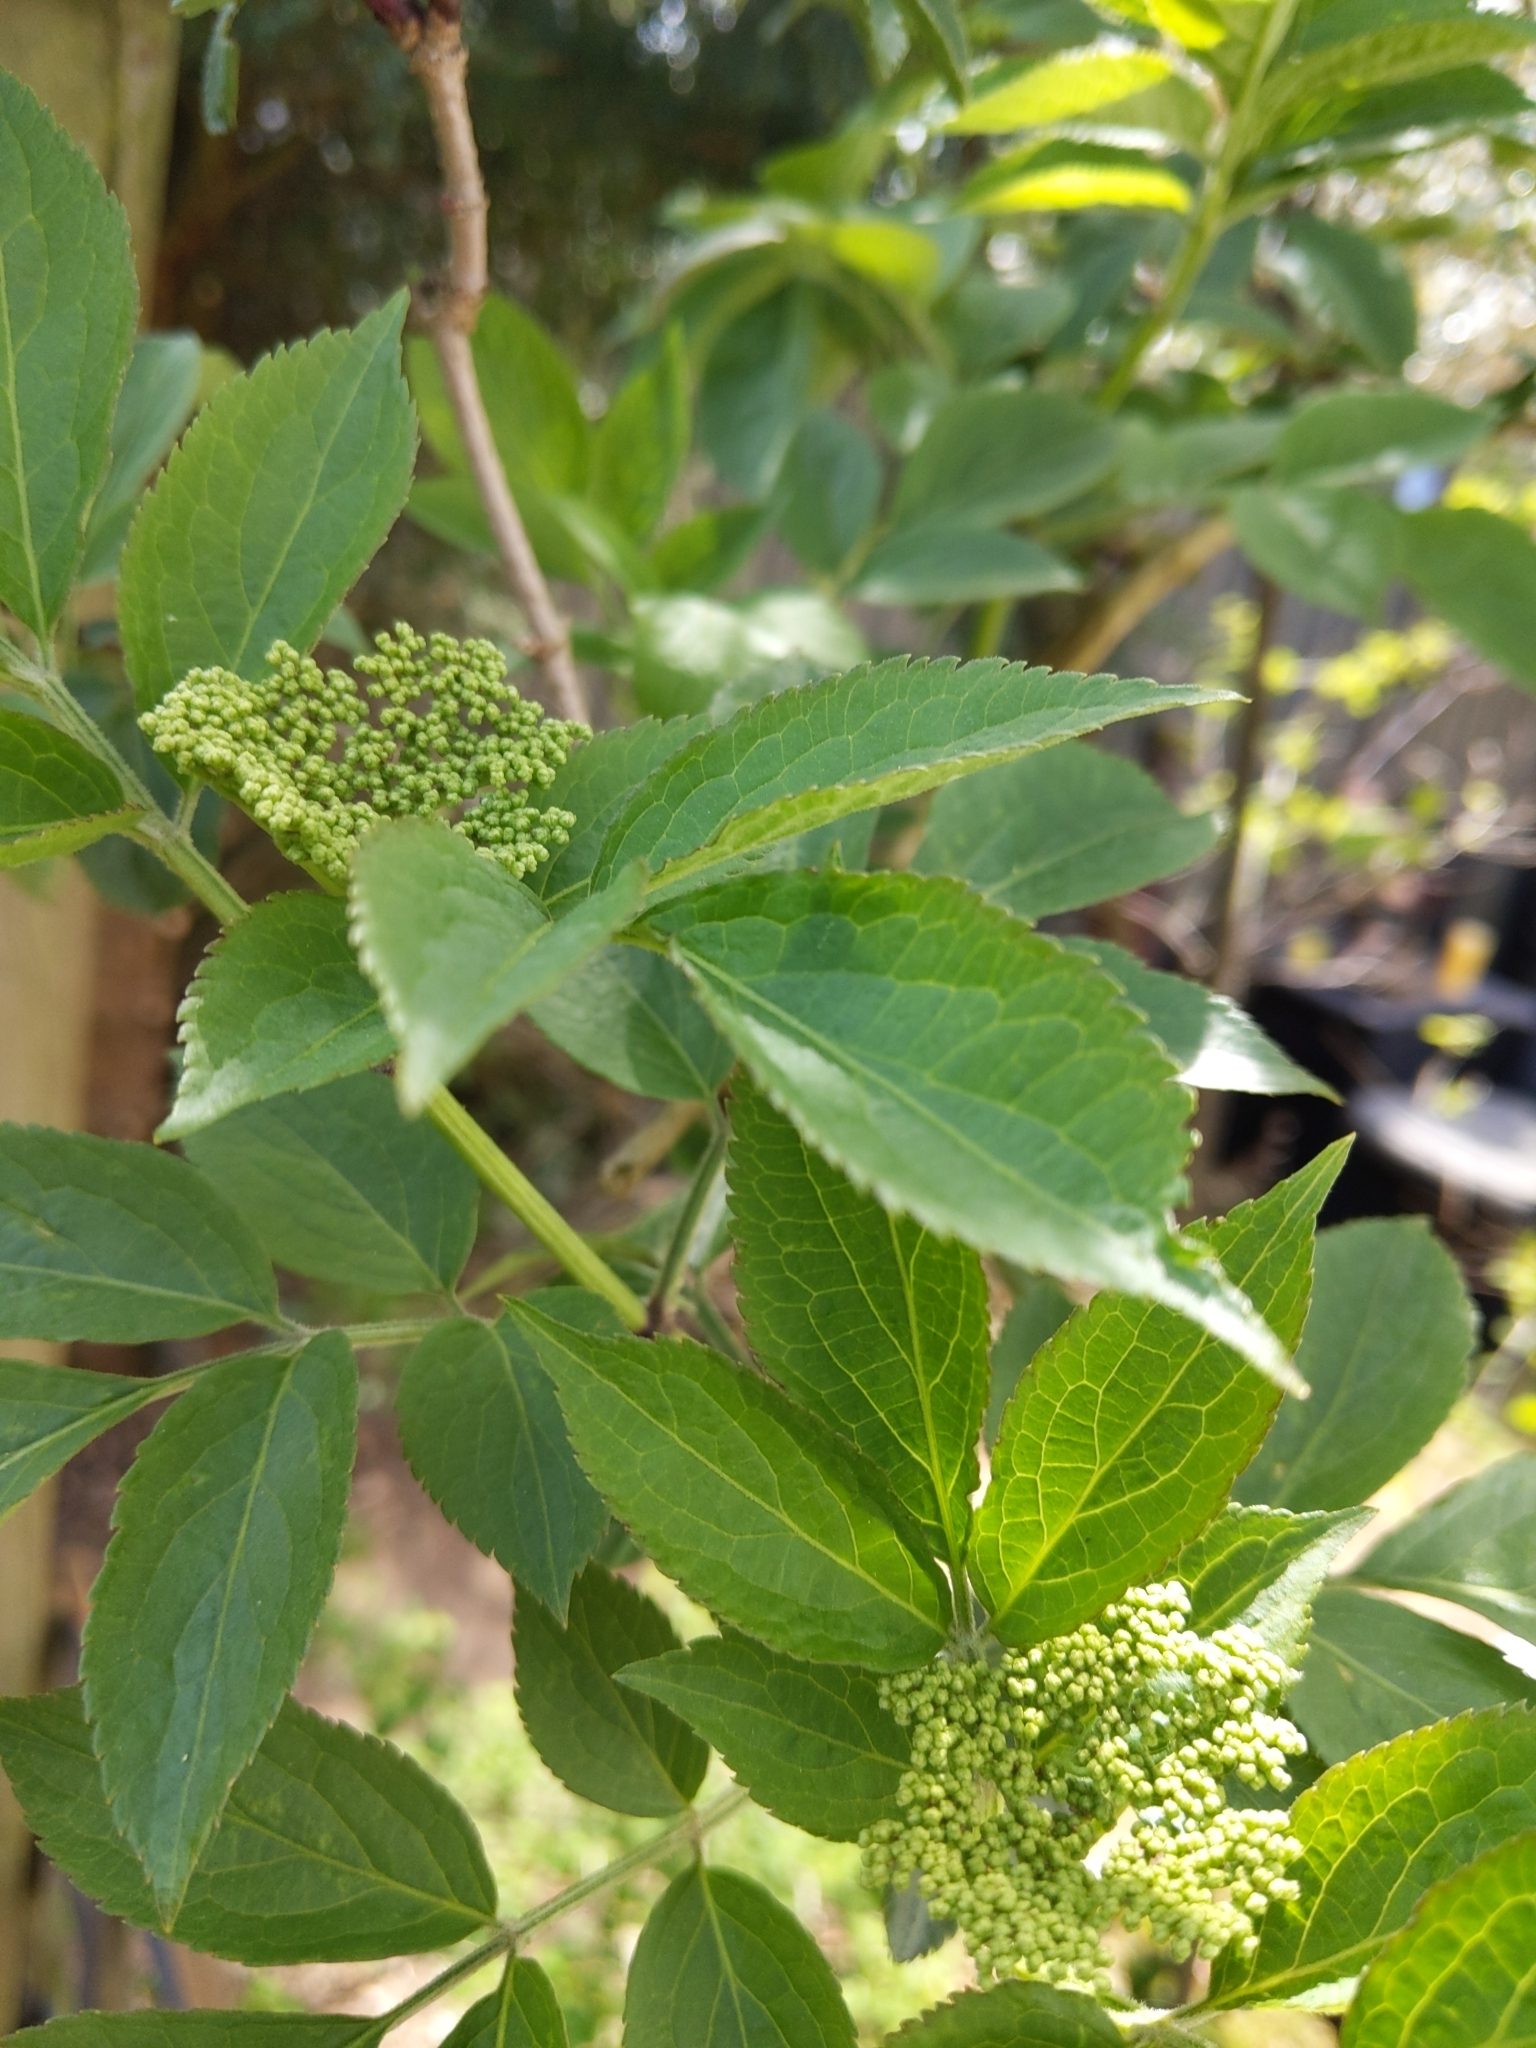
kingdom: Plantae
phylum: Tracheophyta
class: Magnoliopsida
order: Dipsacales
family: Viburnaceae
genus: Sambucus
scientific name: Sambucus nigra
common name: Elder
